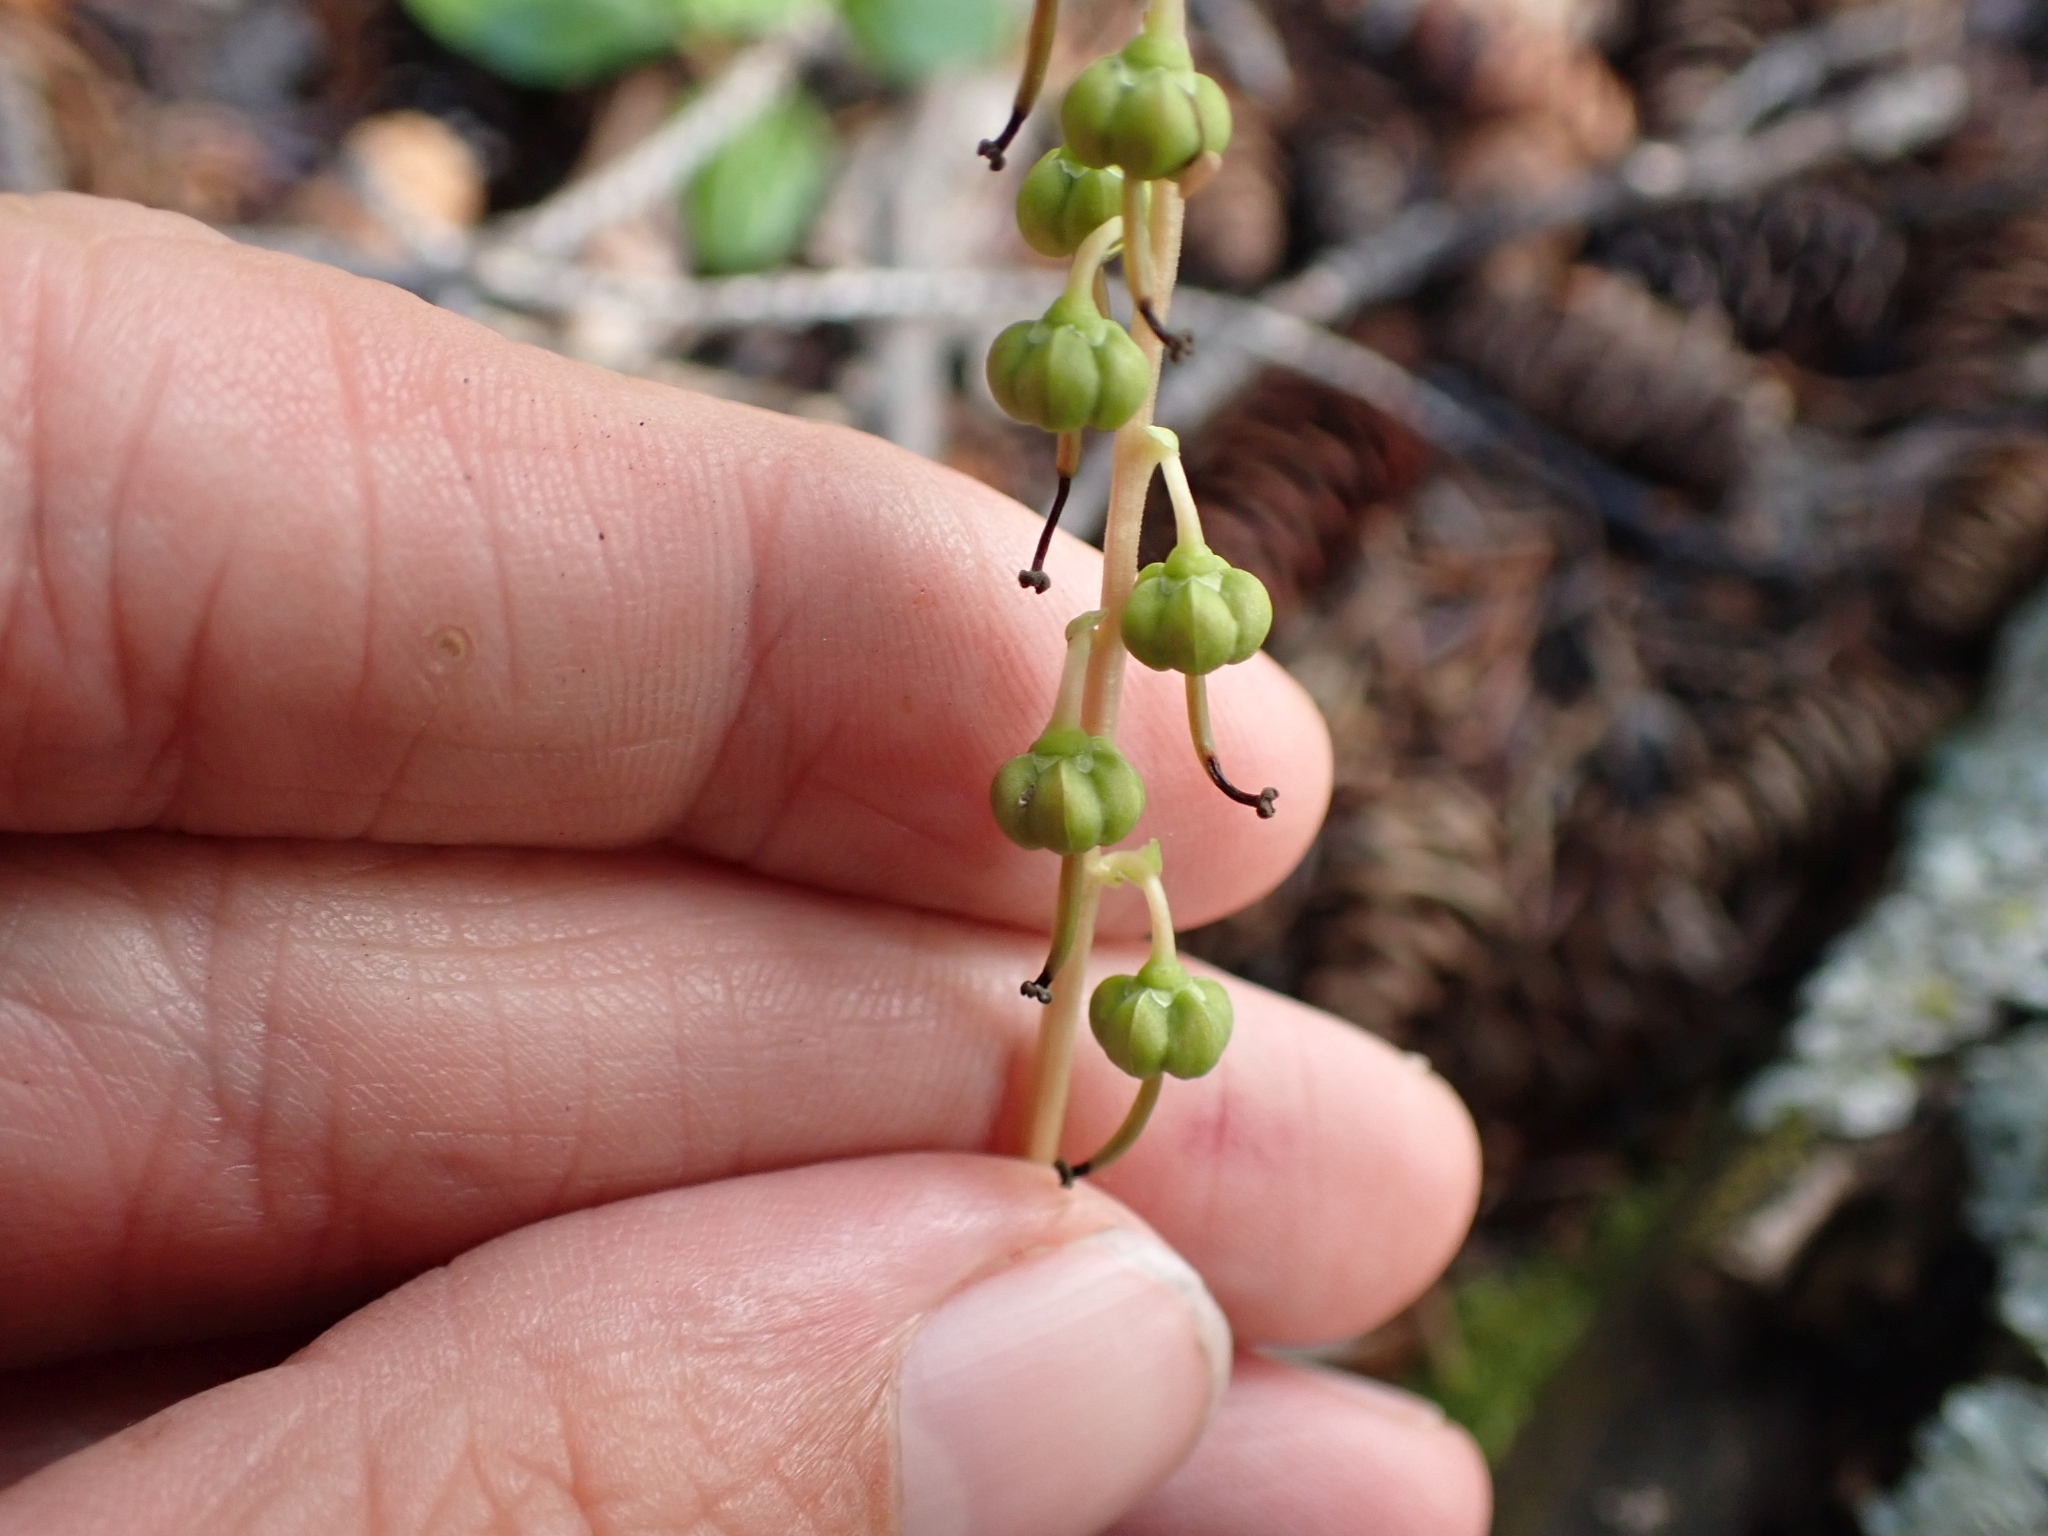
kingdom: Plantae
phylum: Tracheophyta
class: Magnoliopsida
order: Ericales
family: Ericaceae
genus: Orthilia
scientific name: Orthilia secunda
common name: One-sided orthilia
